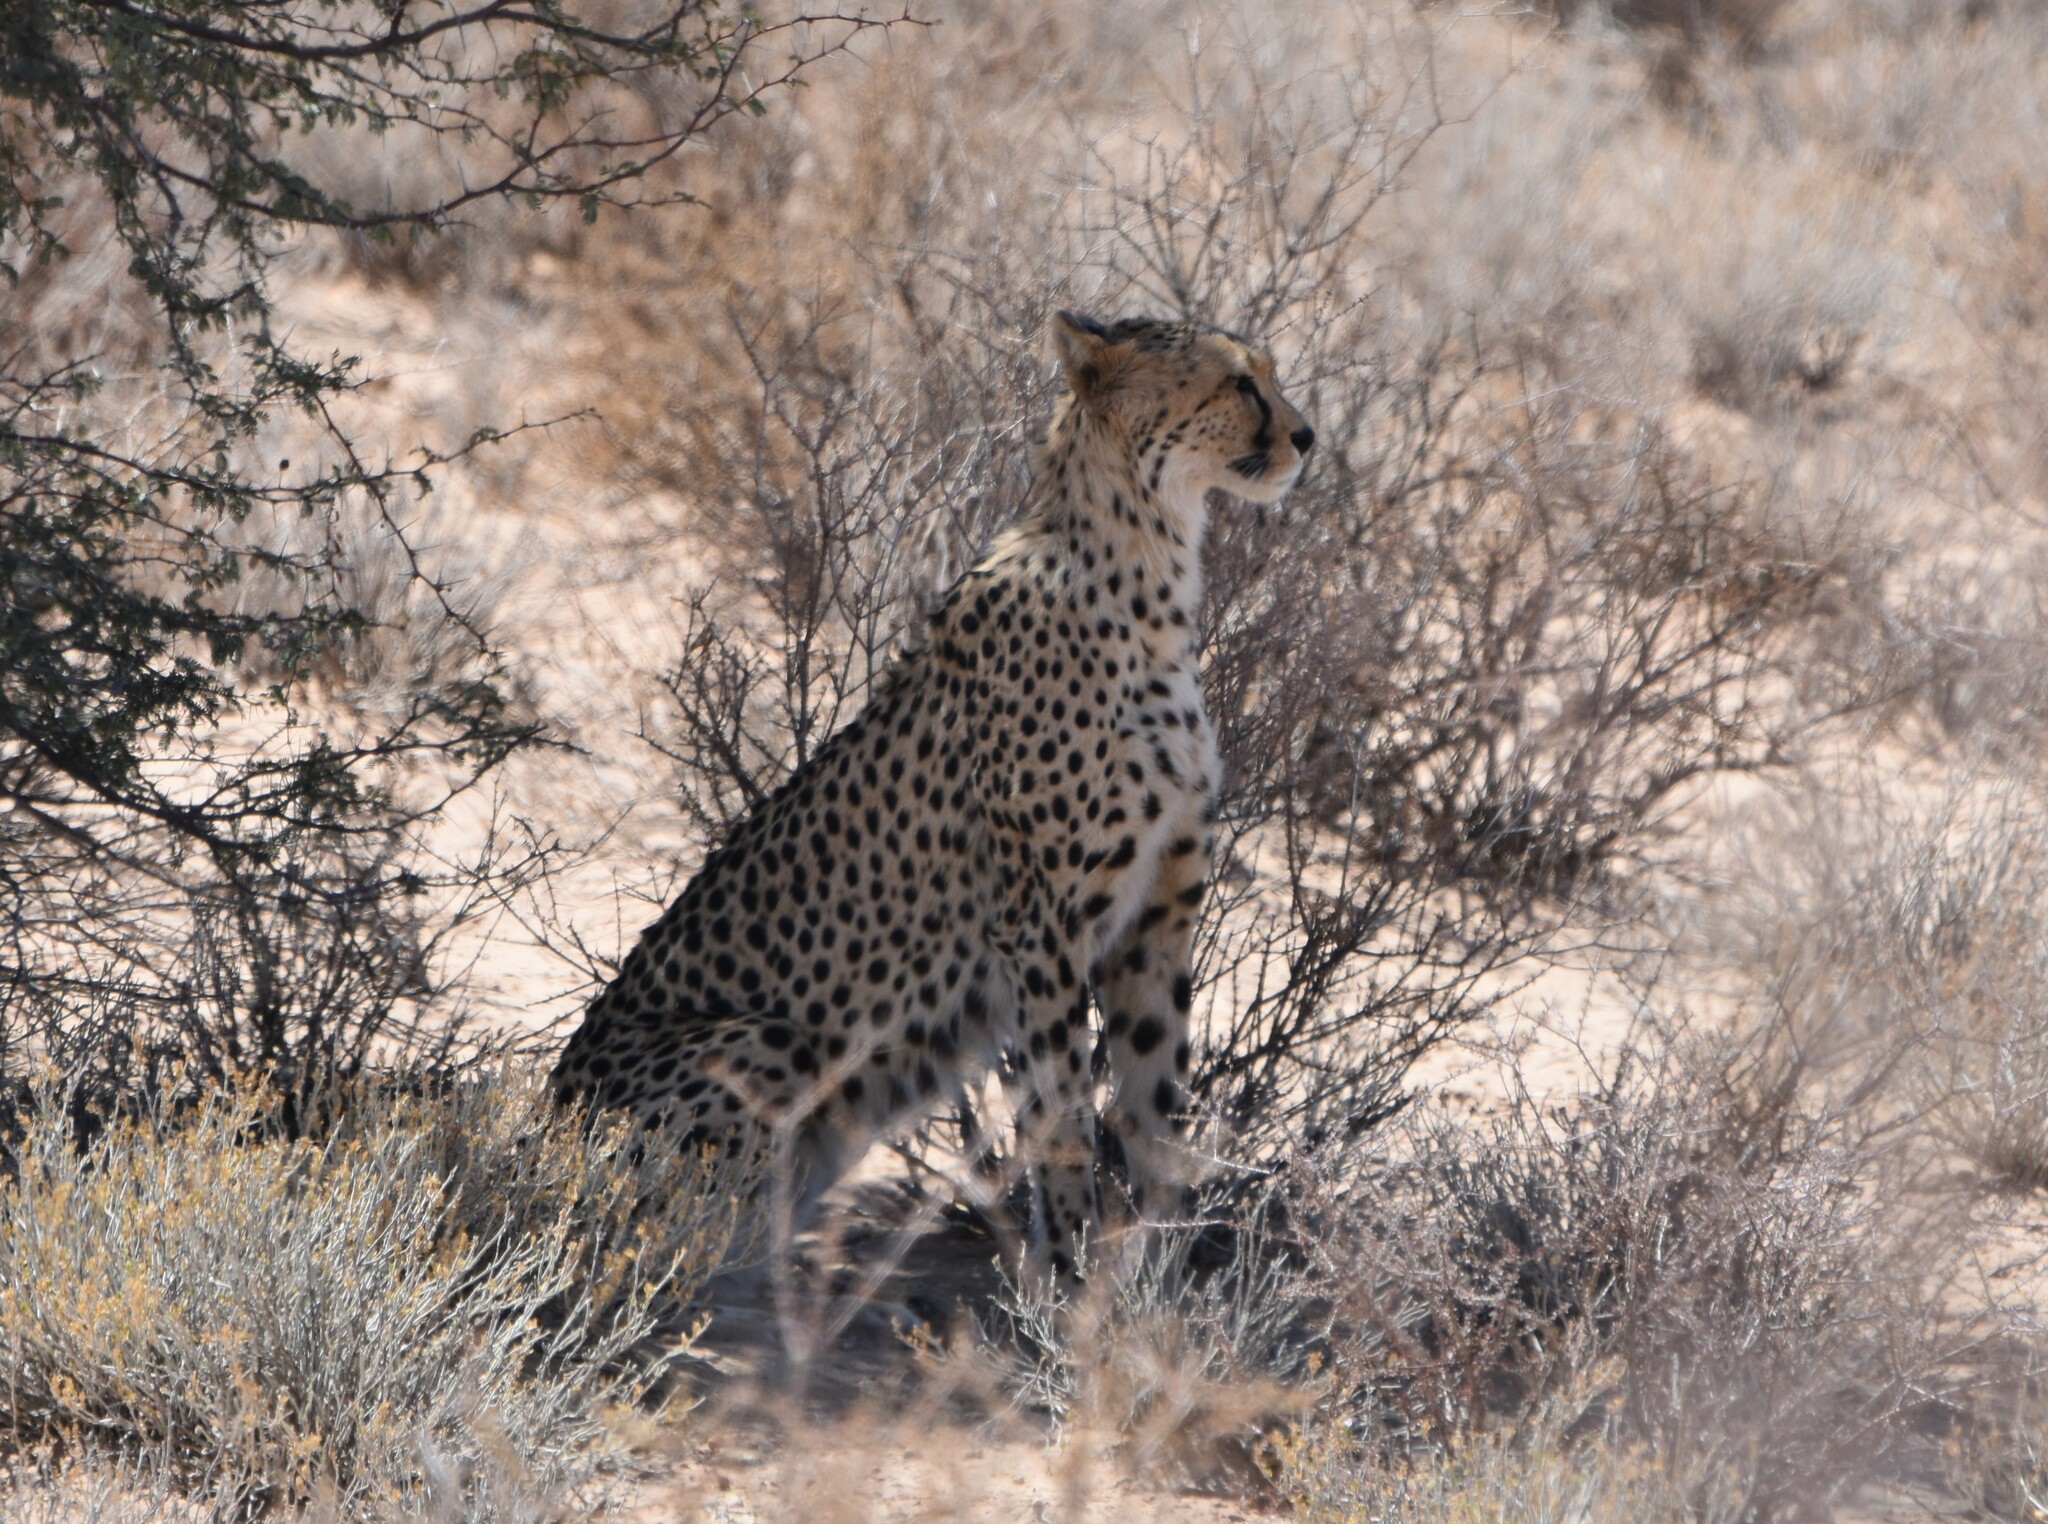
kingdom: Animalia
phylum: Chordata
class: Mammalia
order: Carnivora
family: Felidae
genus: Acinonyx
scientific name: Acinonyx jubatus
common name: Cheetah
